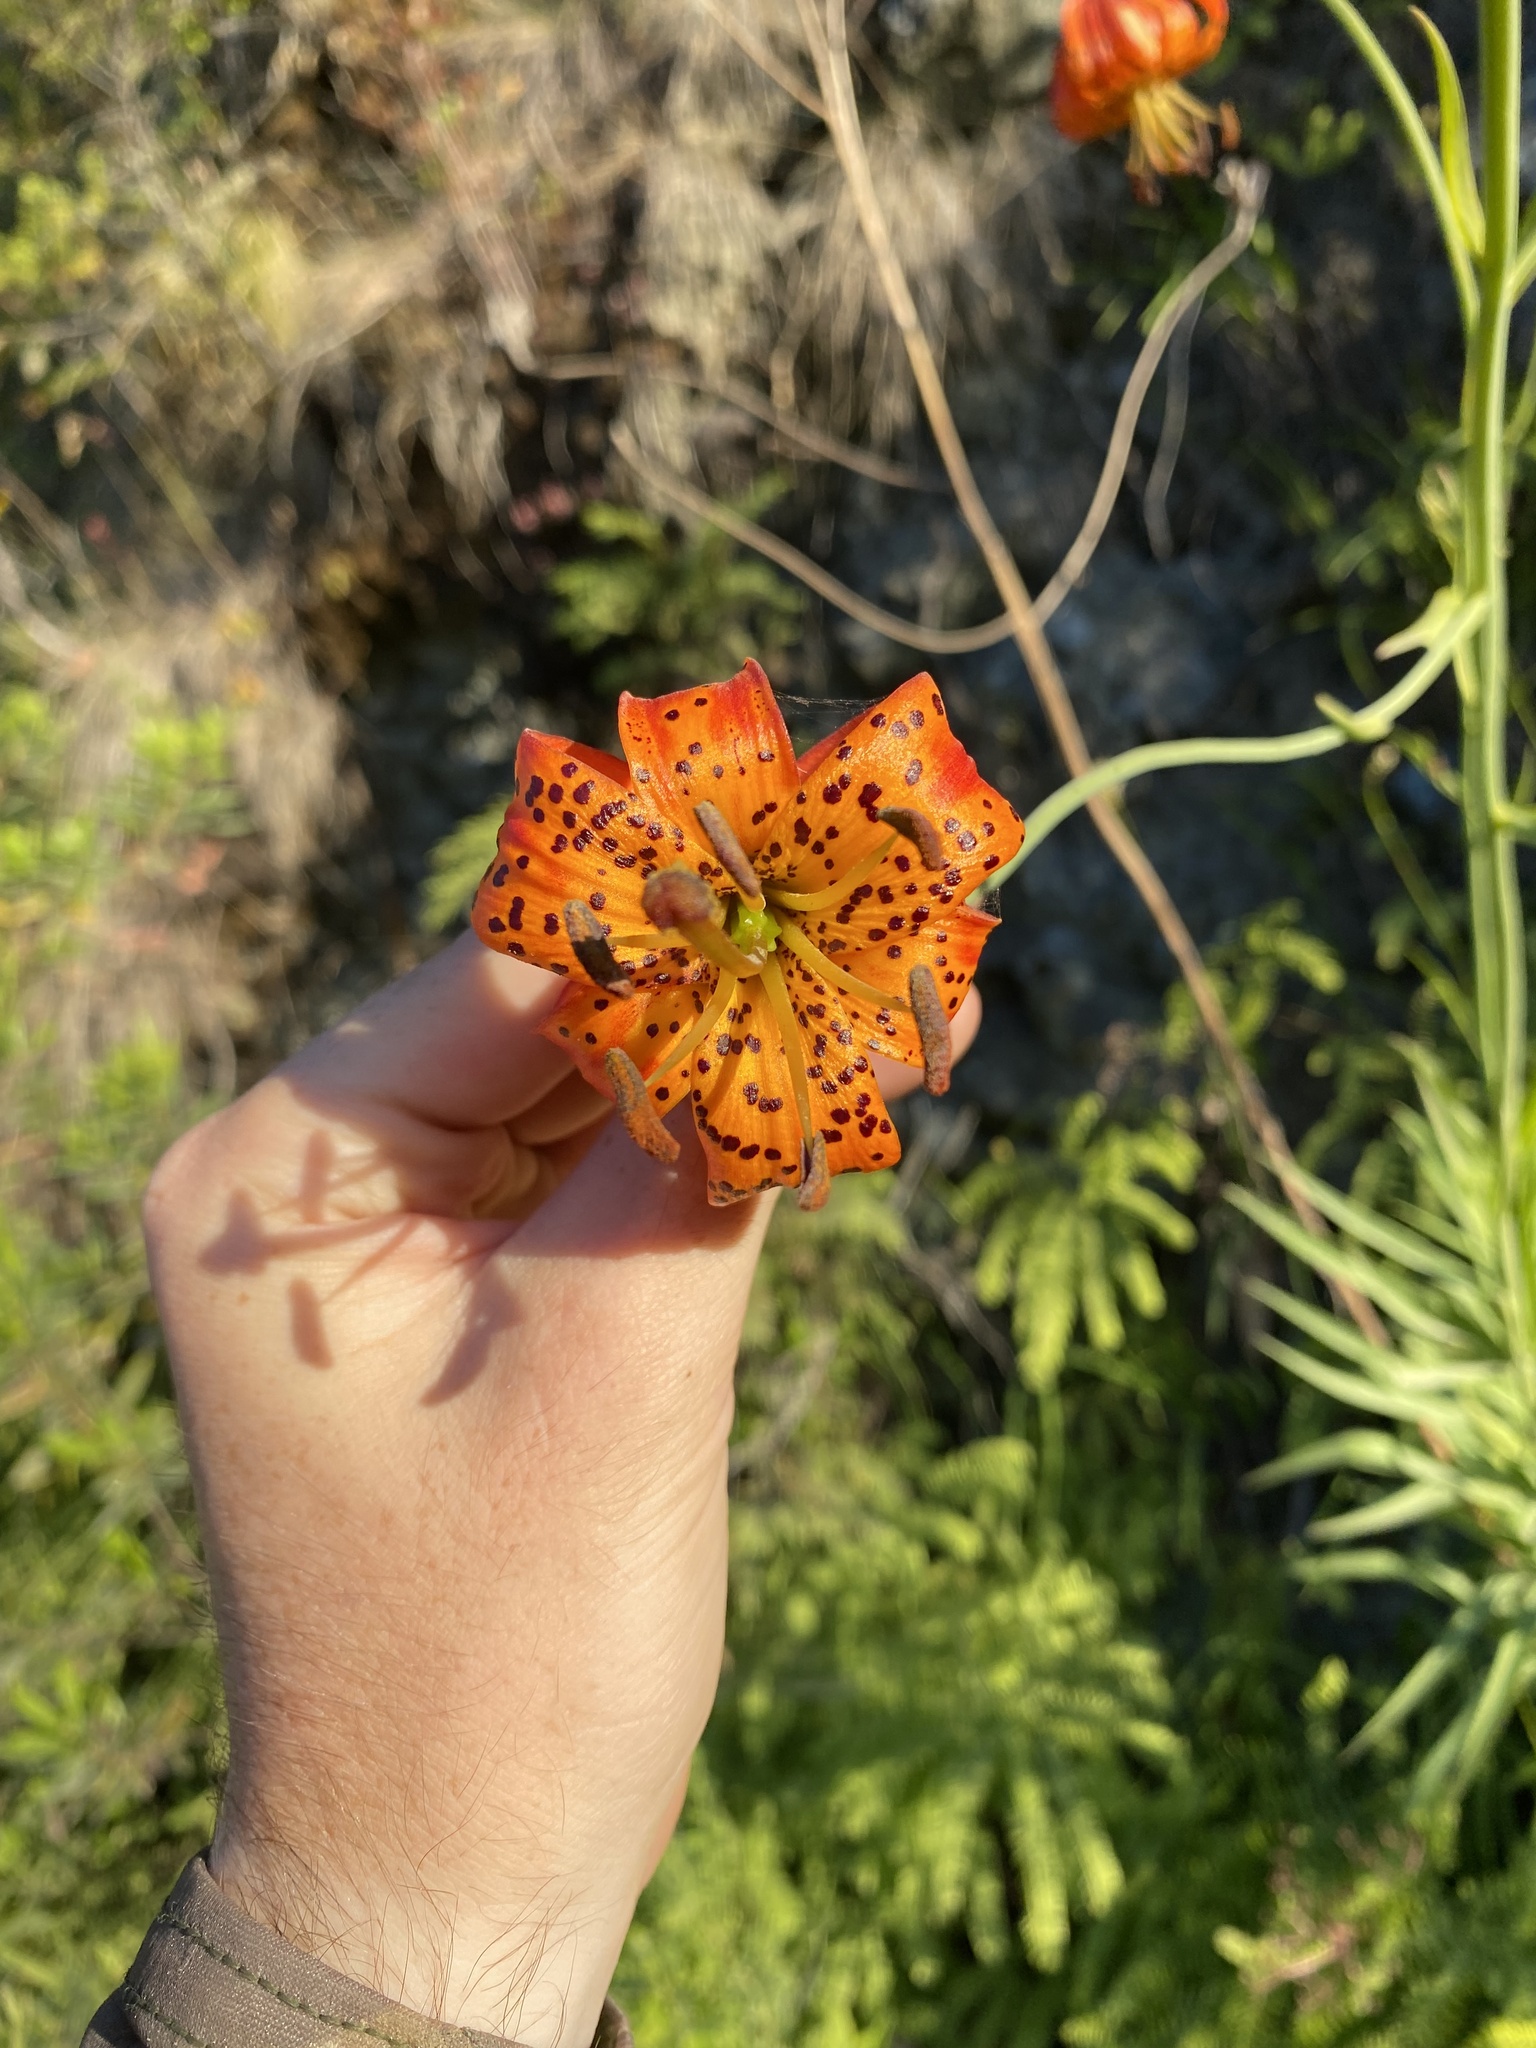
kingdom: Plantae
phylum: Tracheophyta
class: Liliopsida
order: Liliales
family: Liliaceae
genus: Lilium
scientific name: Lilium pardalinum
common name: Panther lily
